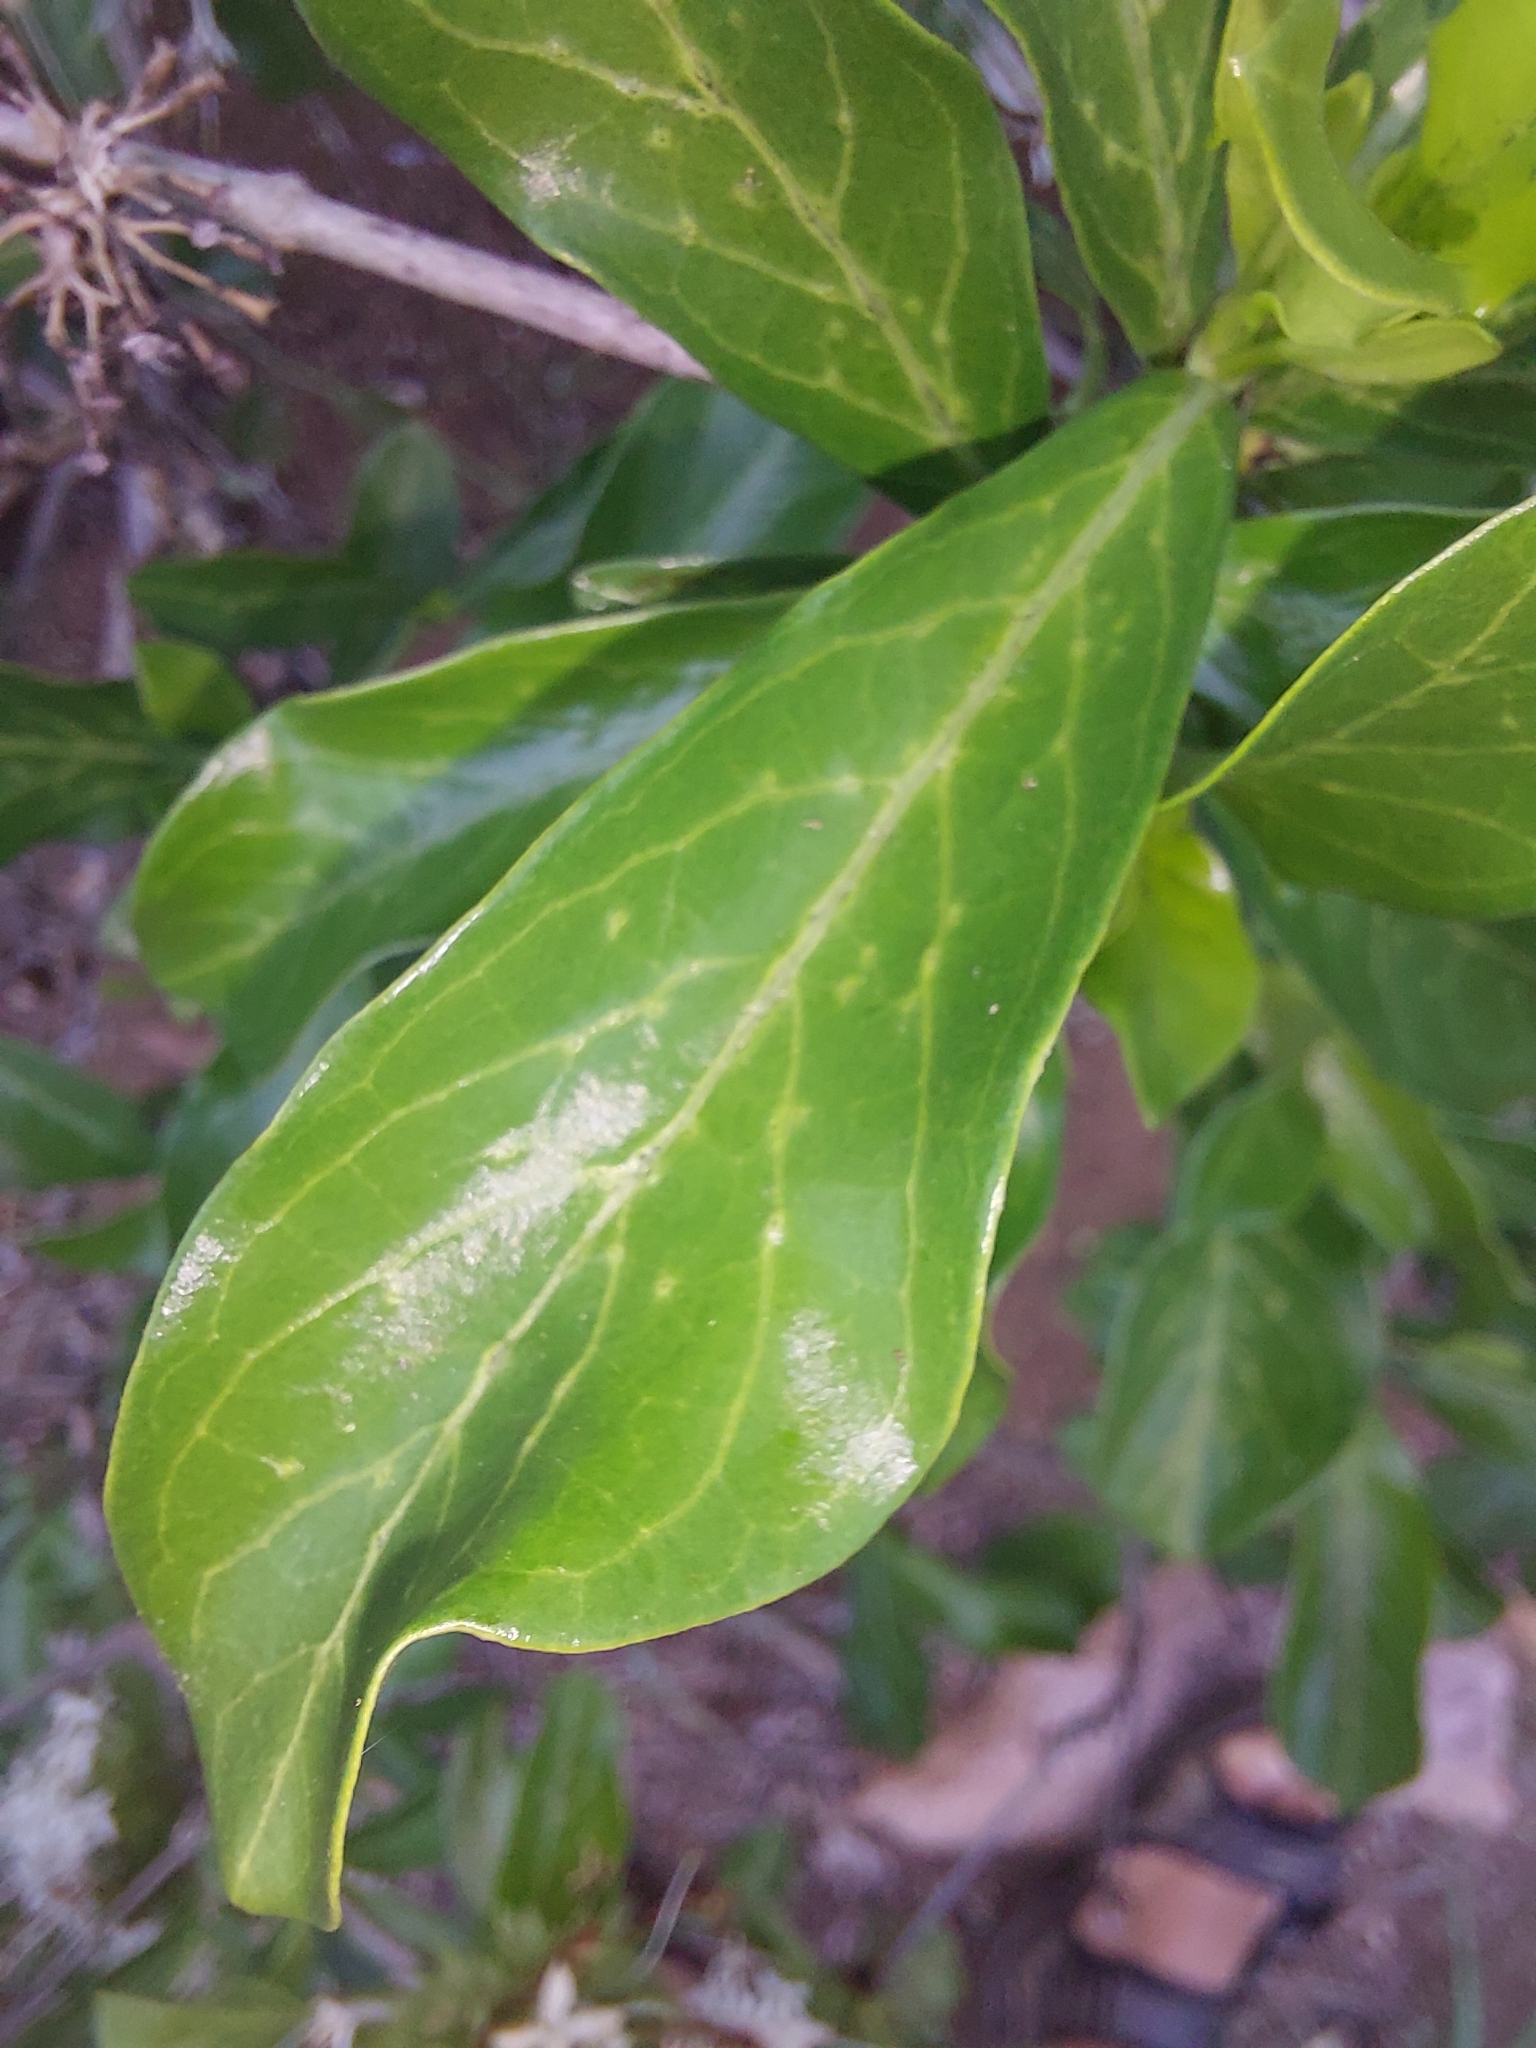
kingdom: Plantae
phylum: Tracheophyta
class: Magnoliopsida
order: Gentianales
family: Rubiaceae
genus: Pavetta
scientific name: Pavetta catophylla
